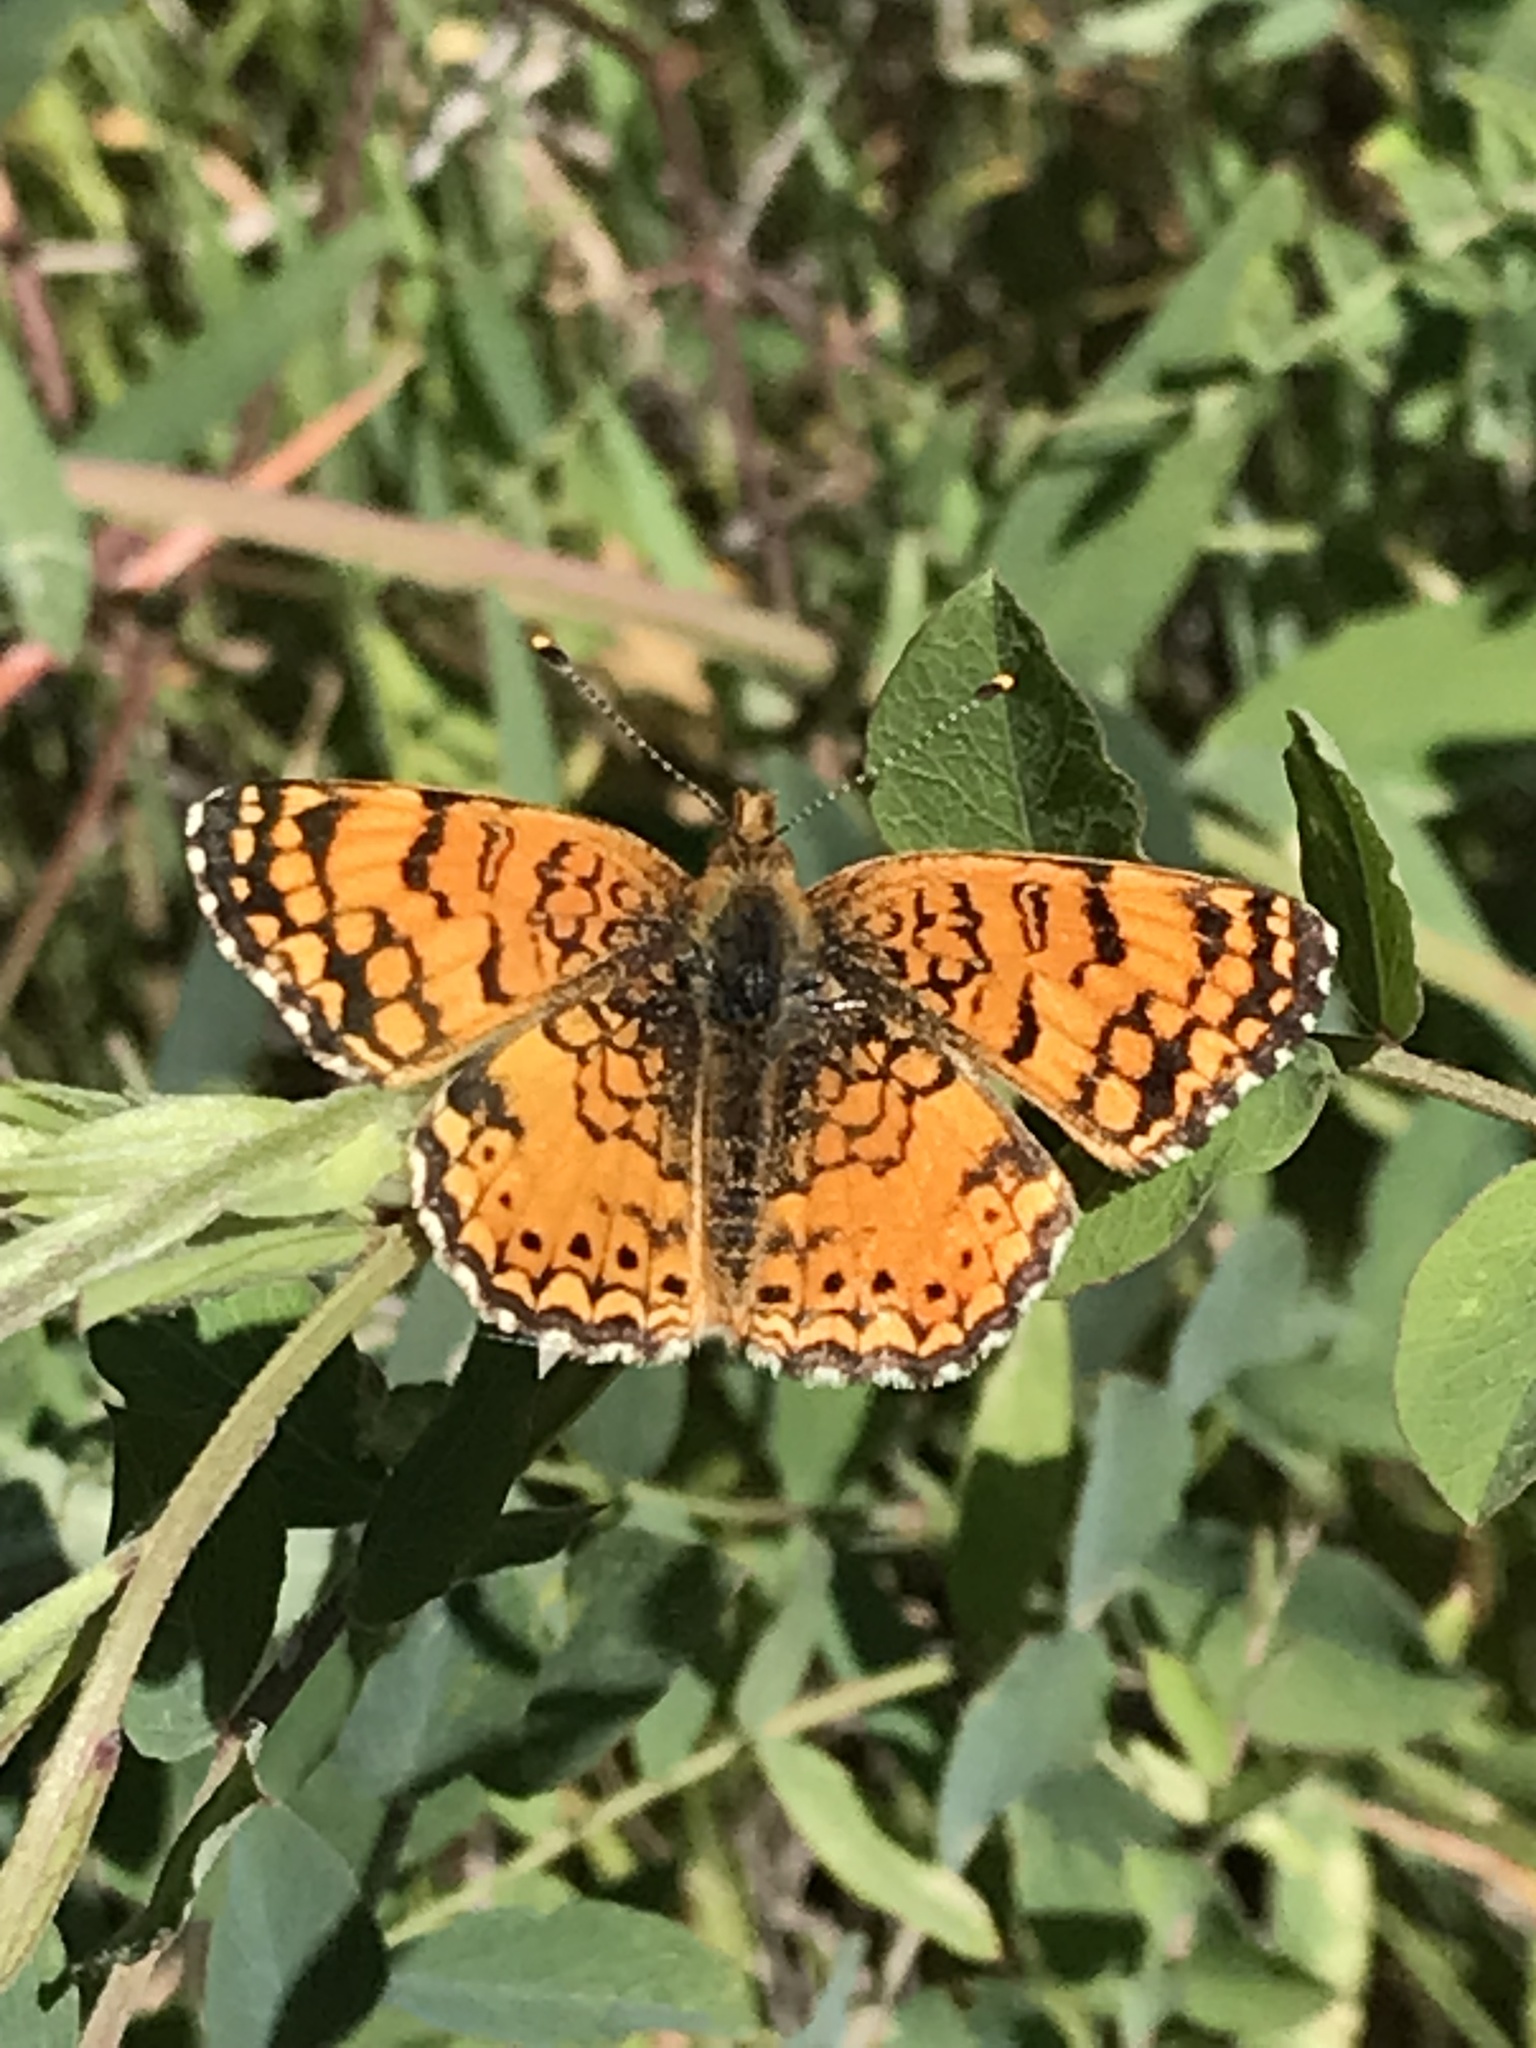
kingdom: Animalia
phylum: Arthropoda
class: Insecta
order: Lepidoptera
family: Nymphalidae
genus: Eresia
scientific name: Eresia aveyrona
